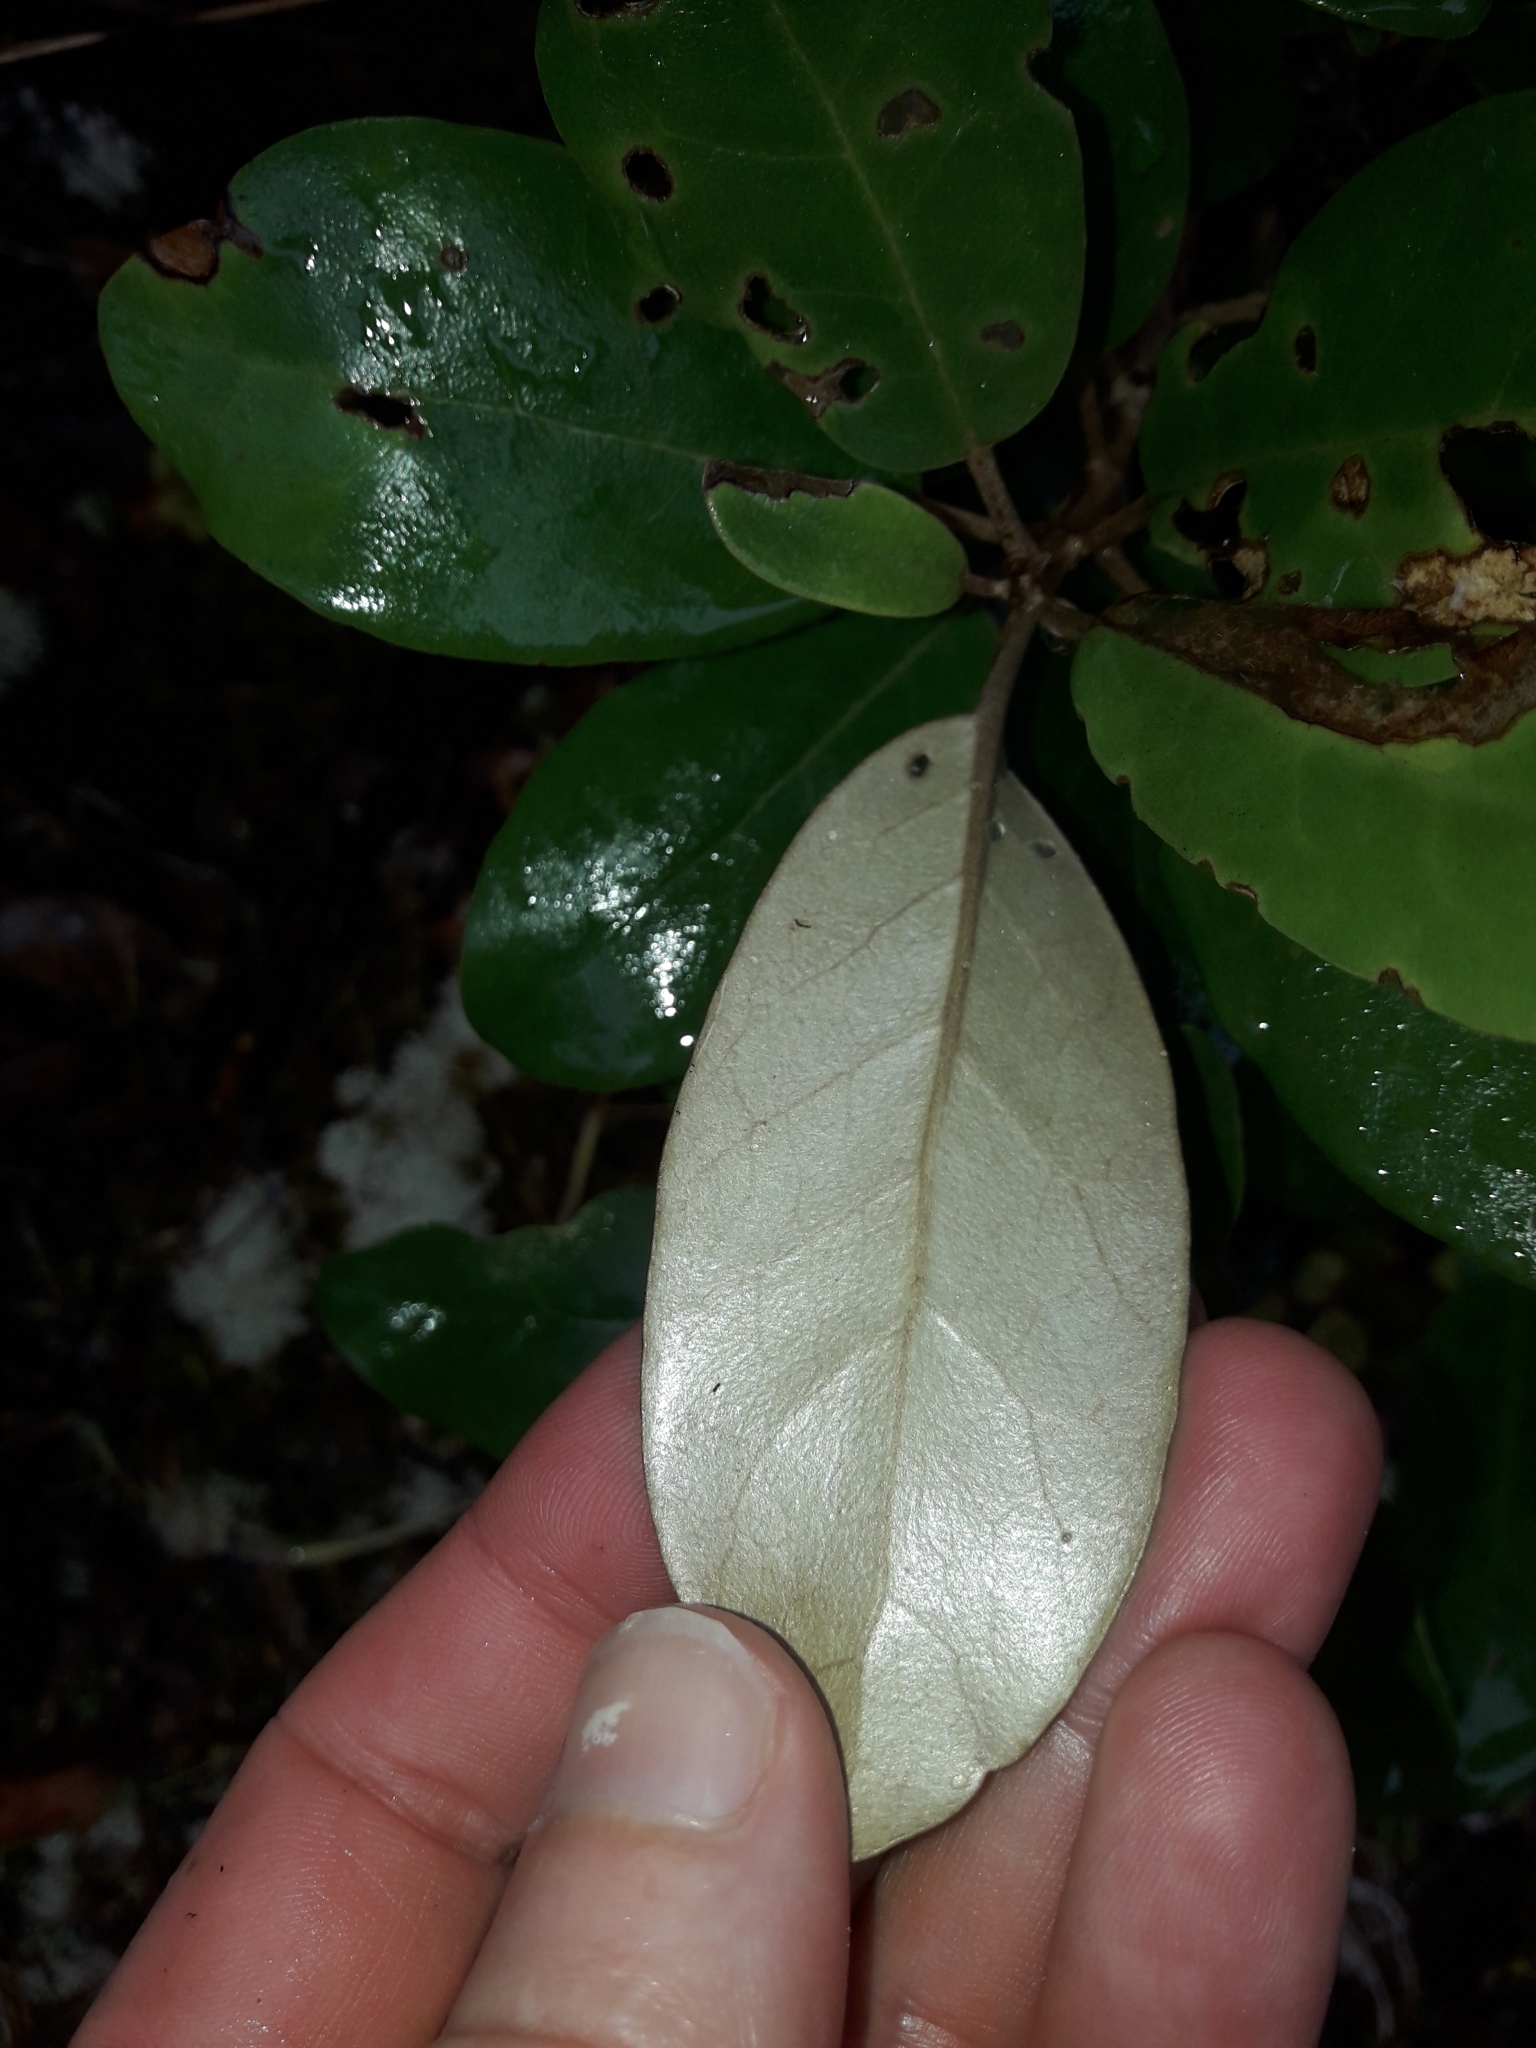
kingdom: Plantae
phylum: Tracheophyta
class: Magnoliopsida
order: Asterales
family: Asteraceae
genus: Olearia
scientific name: Olearia townsonii
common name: Coromandel tree daisy
